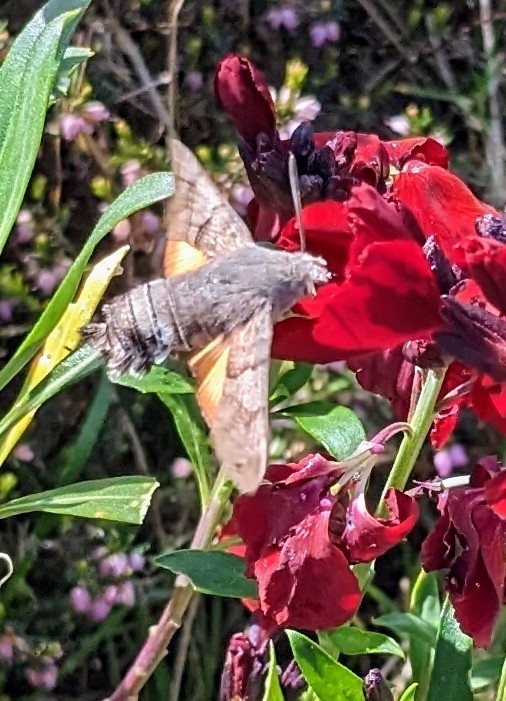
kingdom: Animalia
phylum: Arthropoda
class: Insecta
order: Lepidoptera
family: Sphingidae
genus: Macroglossum
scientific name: Macroglossum stellatarum
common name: Humming-bird hawk-moth
